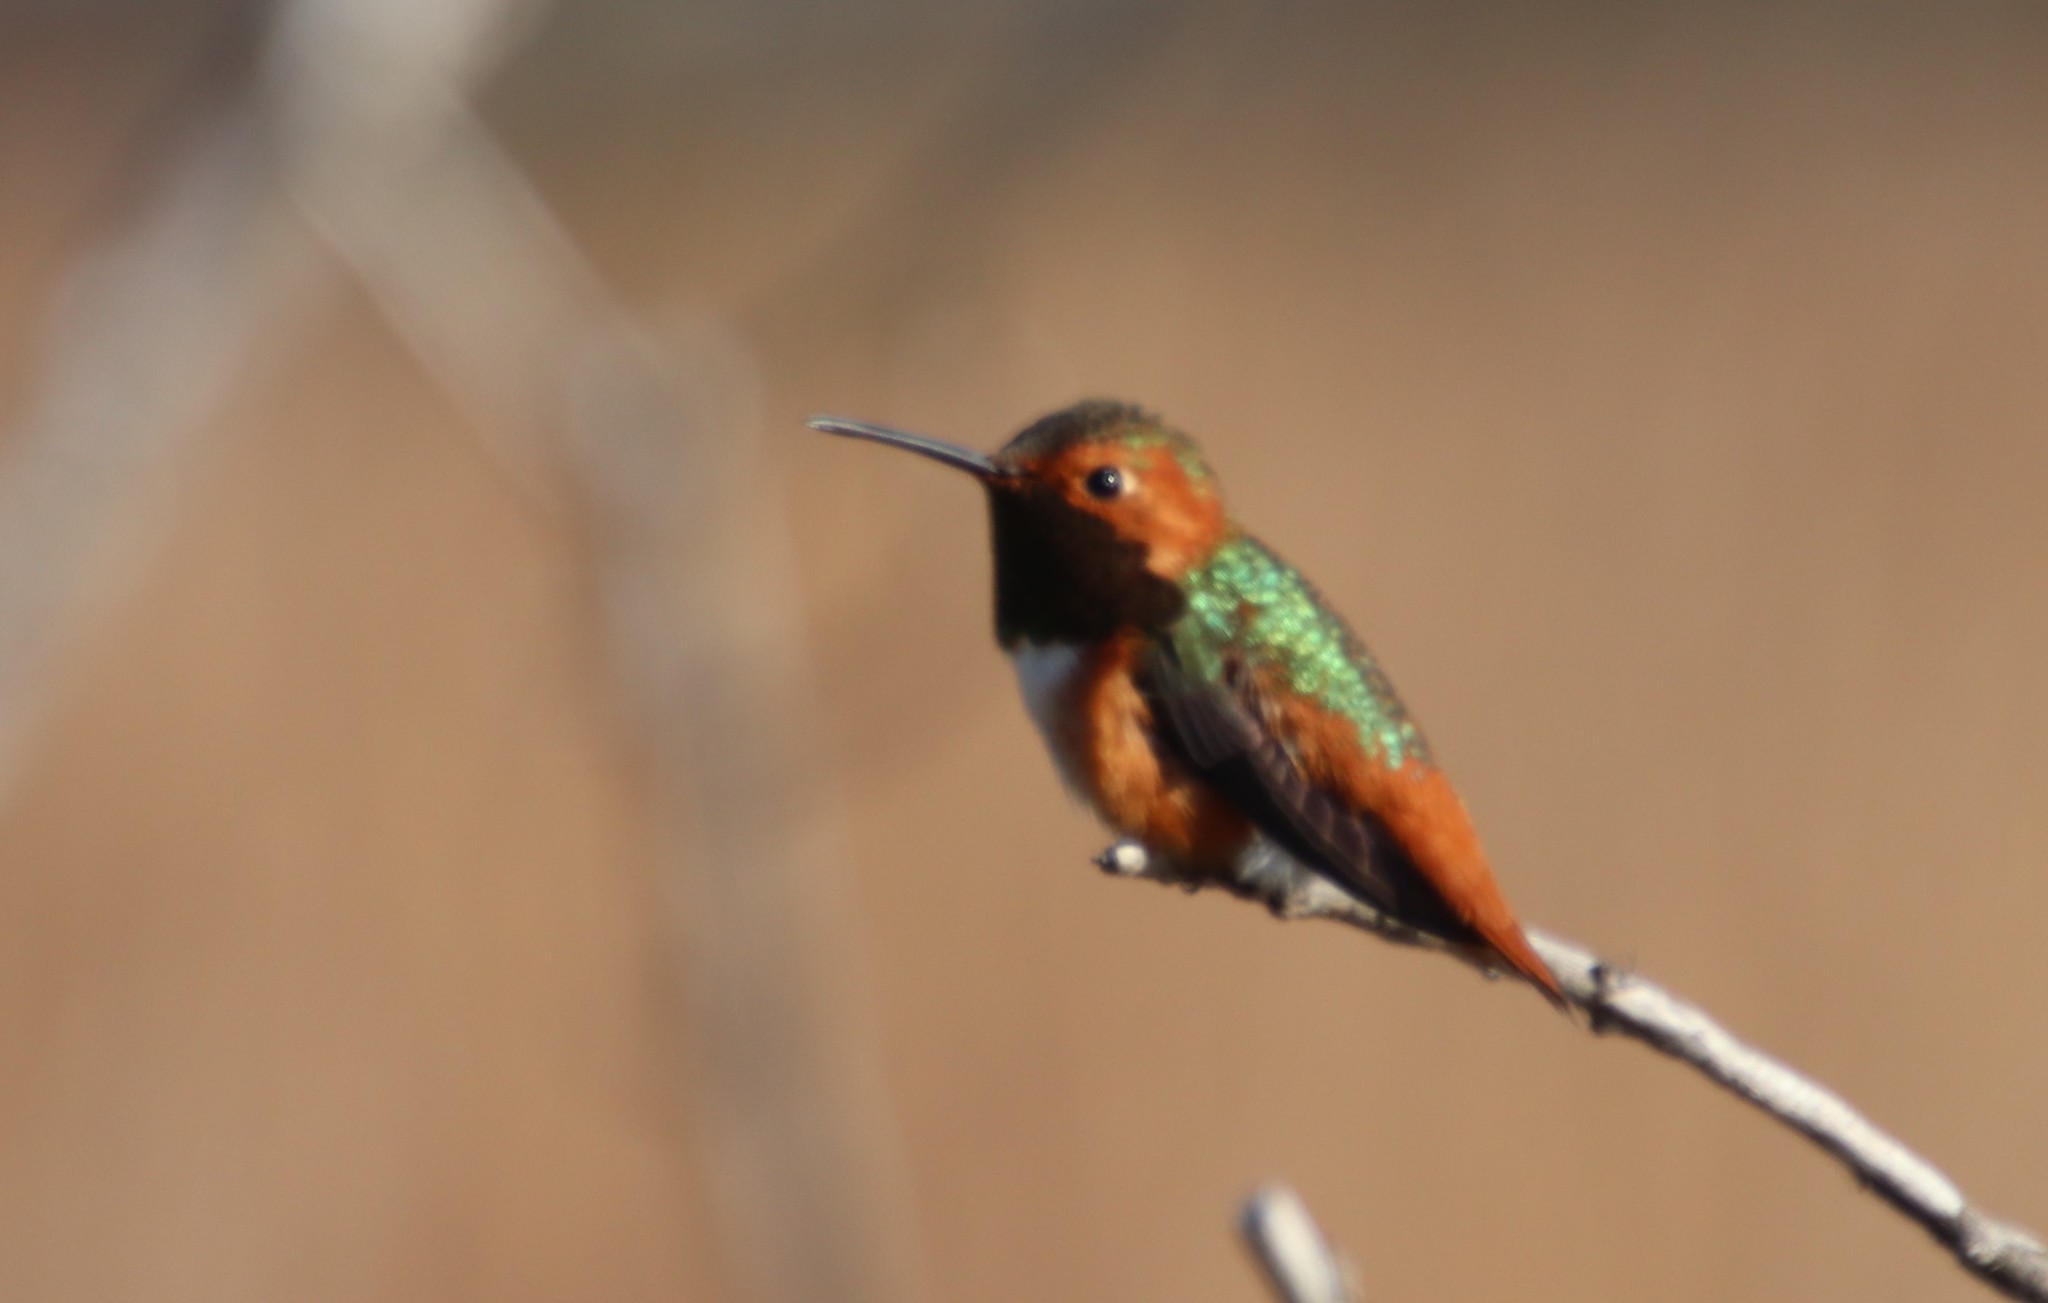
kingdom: Animalia
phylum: Chordata
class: Aves
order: Apodiformes
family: Trochilidae
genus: Selasphorus
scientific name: Selasphorus sasin
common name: Allen's hummingbird
